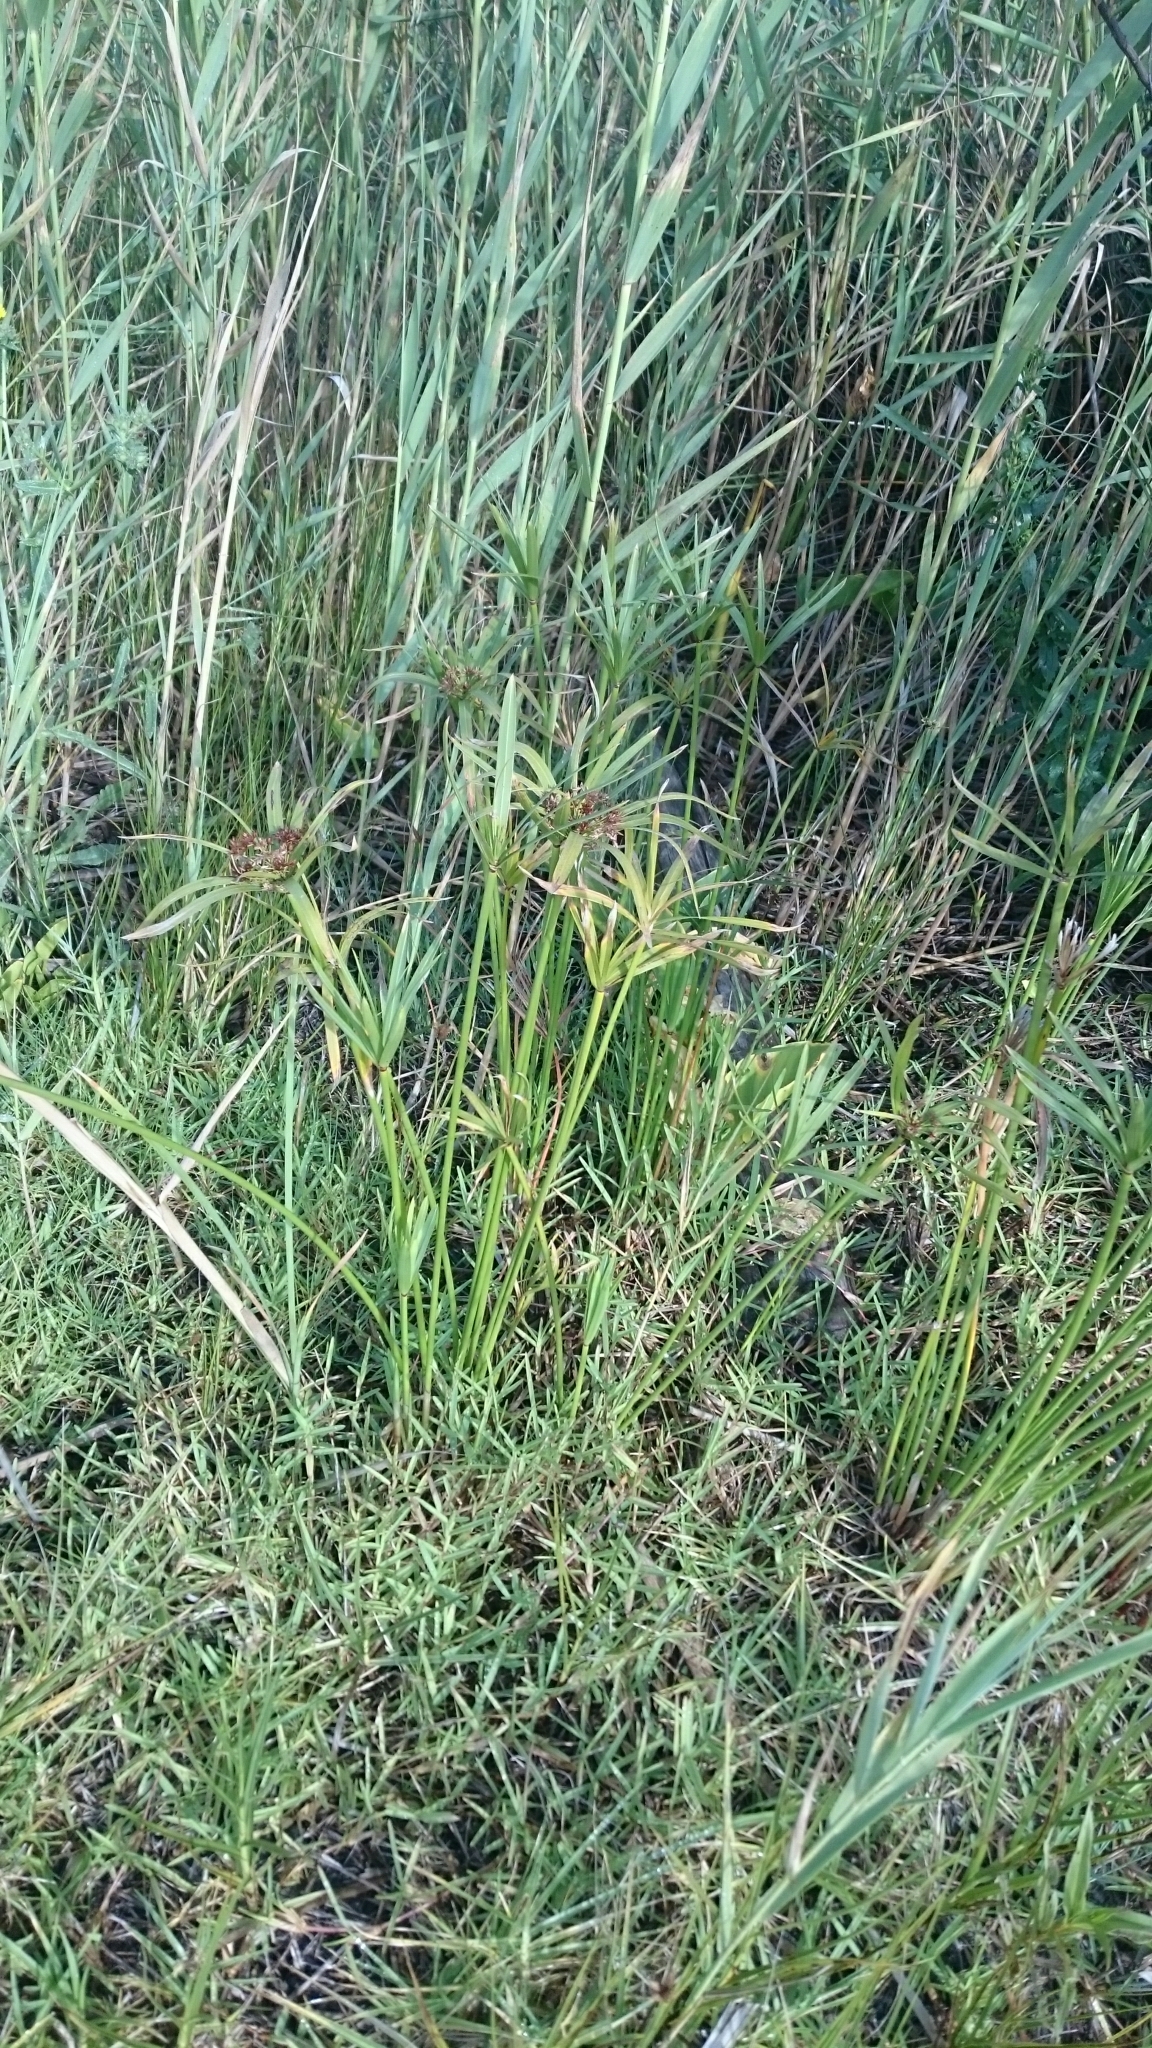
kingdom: Plantae
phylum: Tracheophyta
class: Liliopsida
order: Poales
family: Cyperaceae
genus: Cyperus
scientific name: Cyperus textilis
